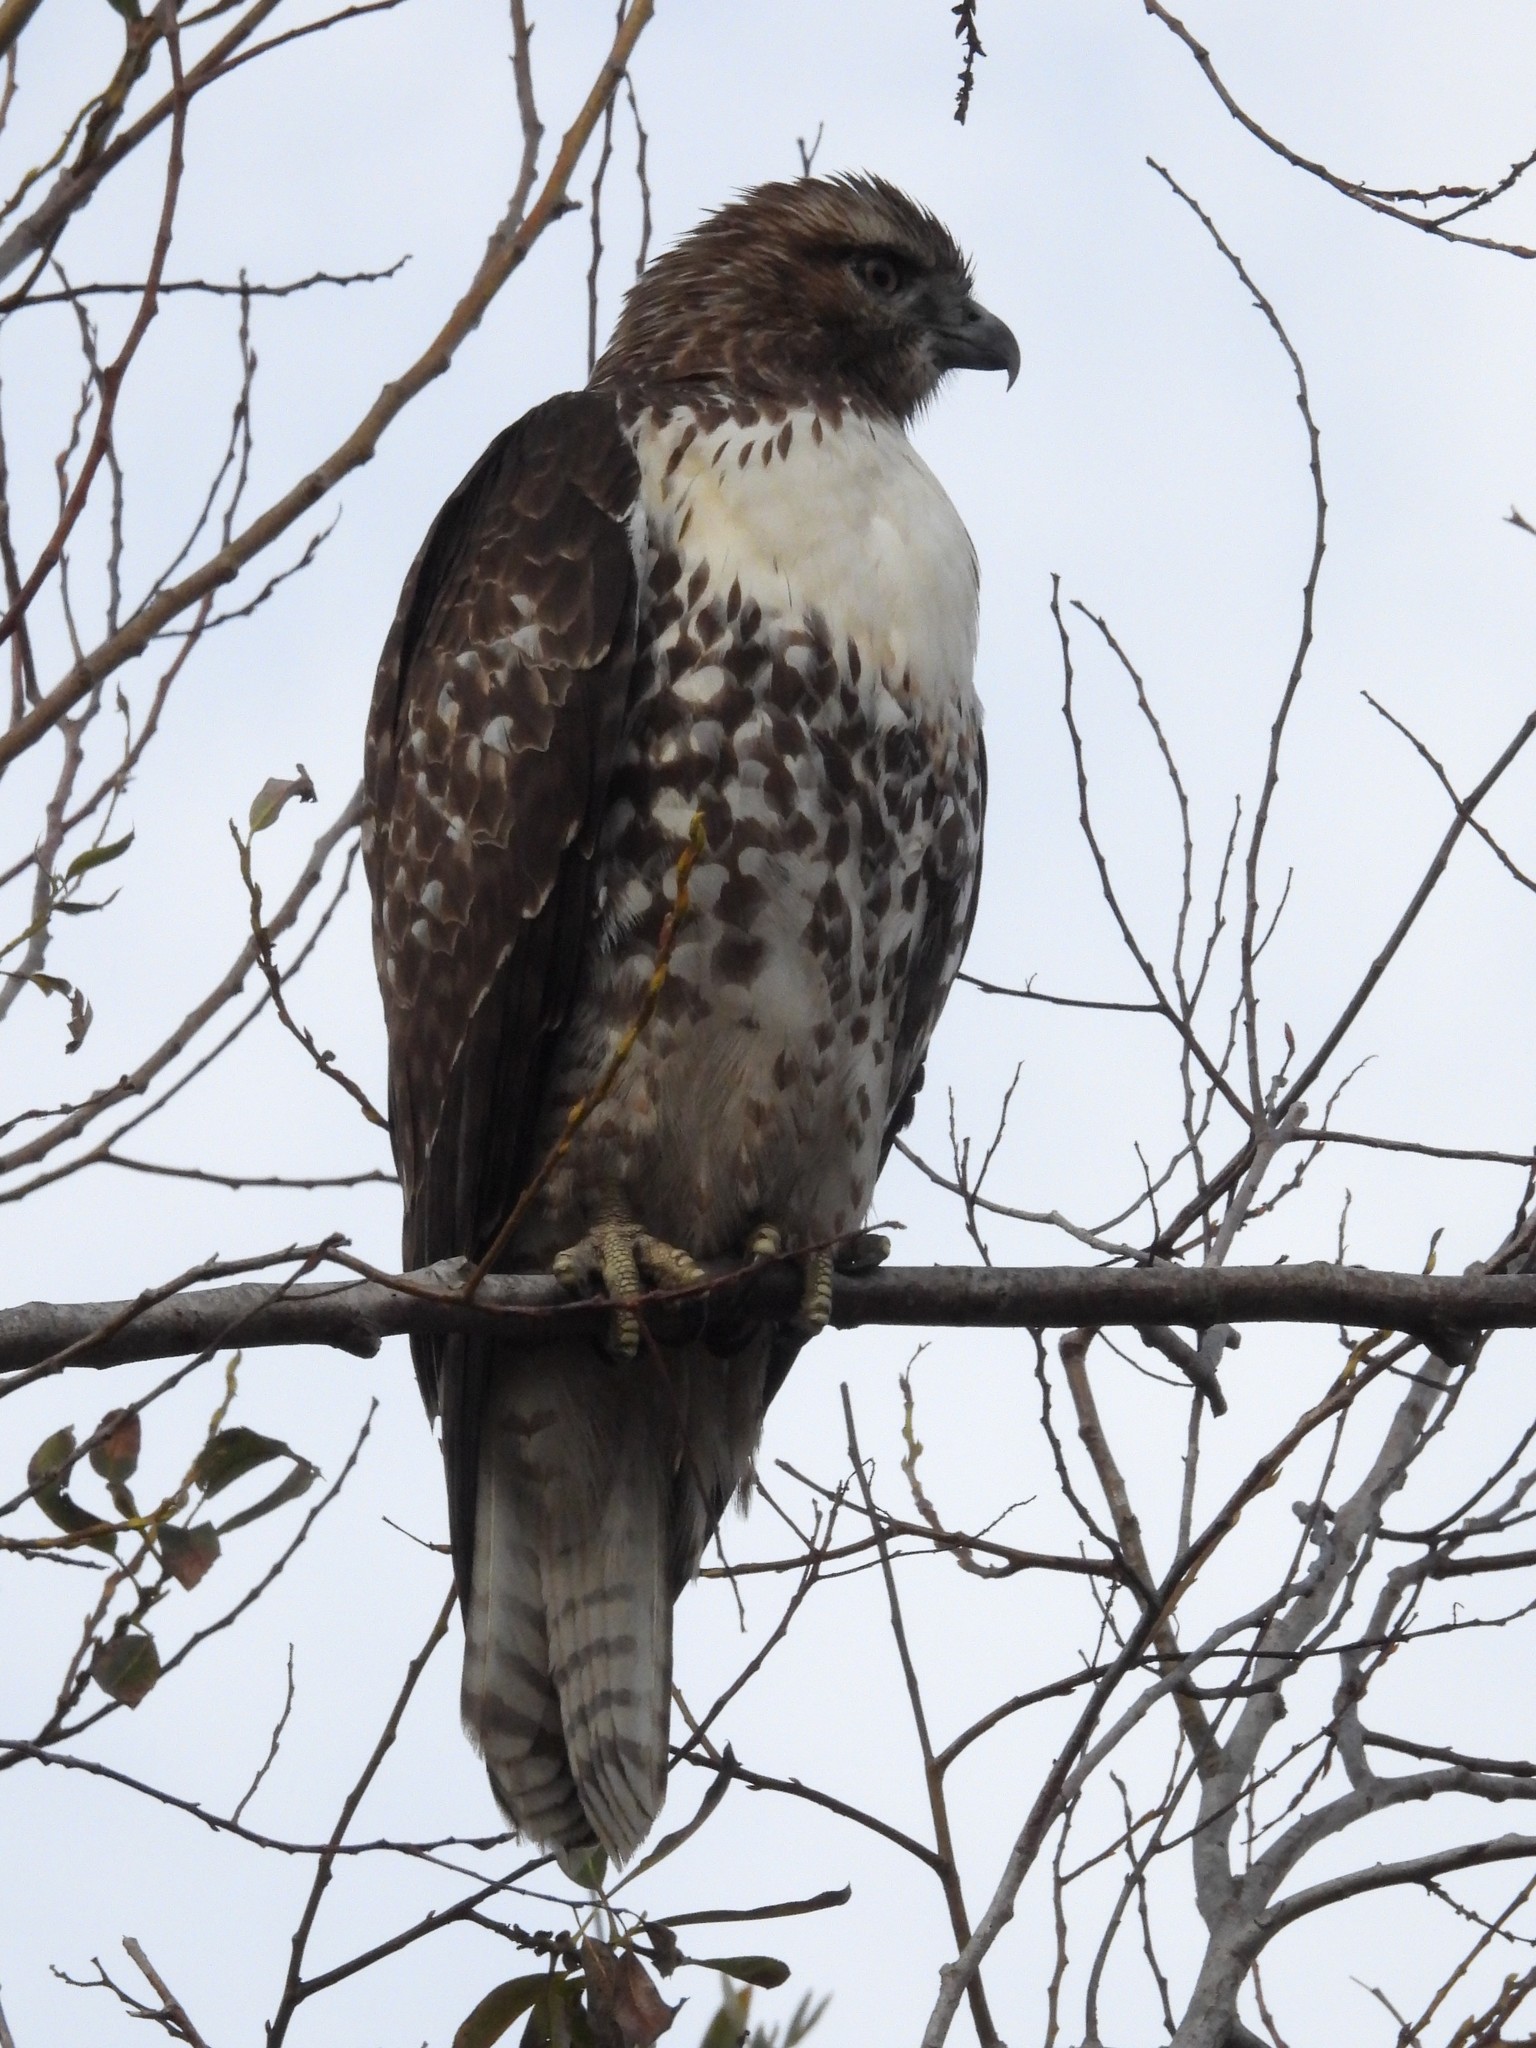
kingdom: Animalia
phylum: Chordata
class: Aves
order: Accipitriformes
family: Accipitridae
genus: Buteo
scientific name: Buteo jamaicensis
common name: Red-tailed hawk
